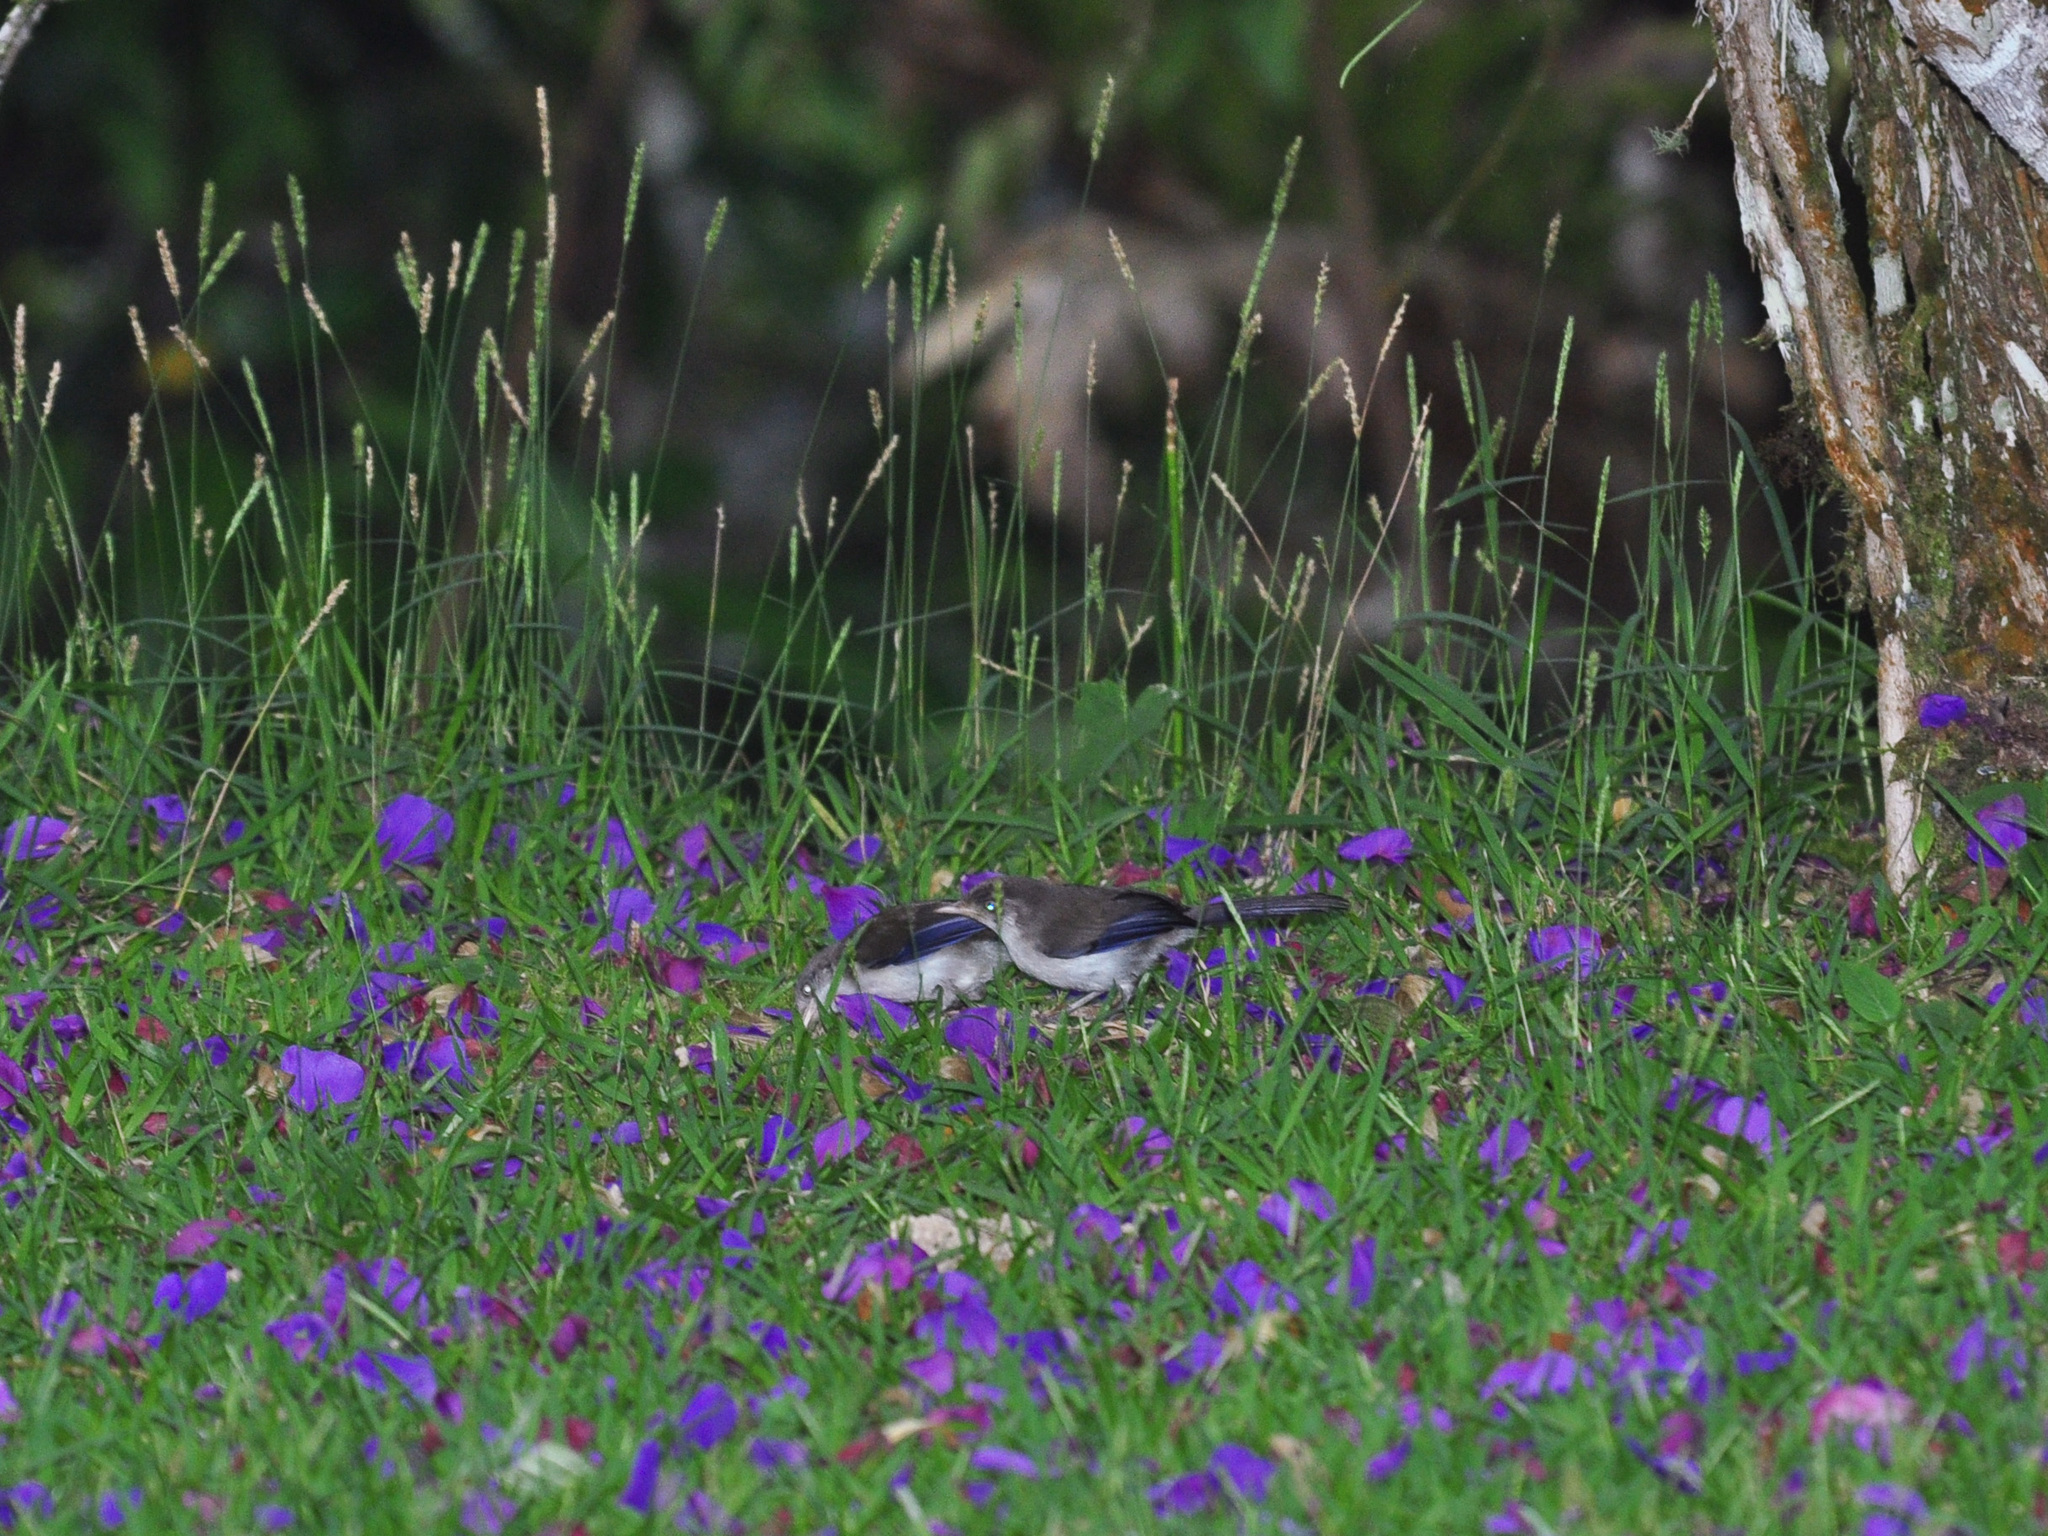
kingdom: Animalia
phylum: Chordata
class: Aves
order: Passeriformes
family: Leiothrichidae
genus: Minla
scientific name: Minla cyanouroptera
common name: Blue-winged minla
